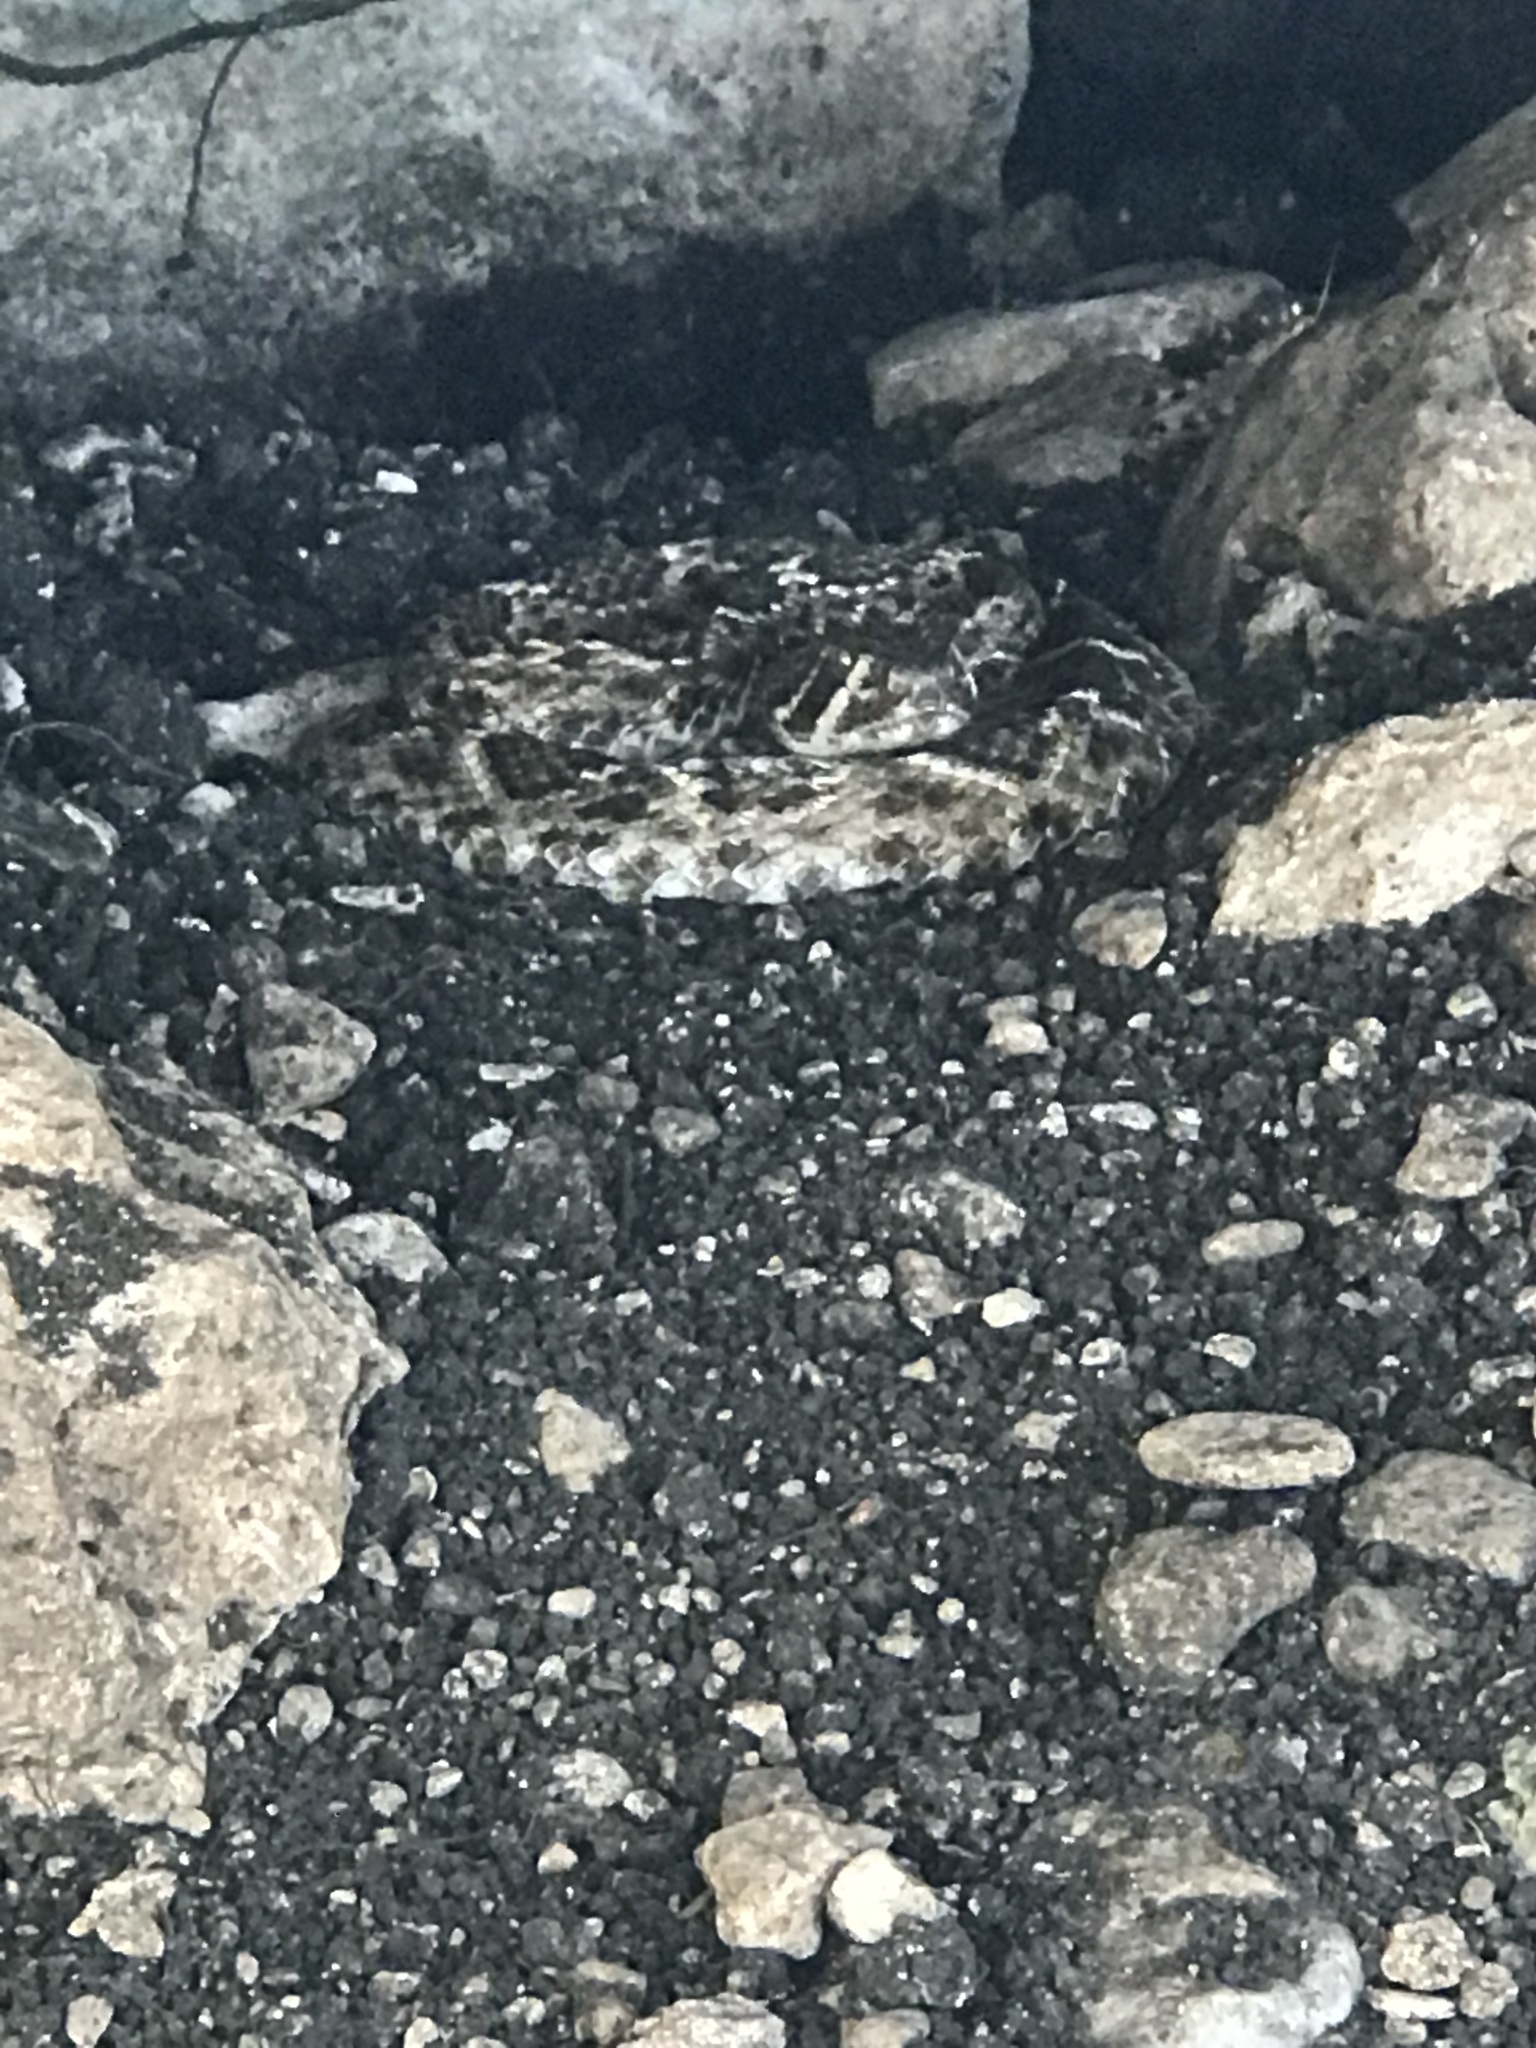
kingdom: Animalia
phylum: Chordata
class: Squamata
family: Viperidae
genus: Crotalus
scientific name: Crotalus atrox
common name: Western diamond-backed rattlesnake
